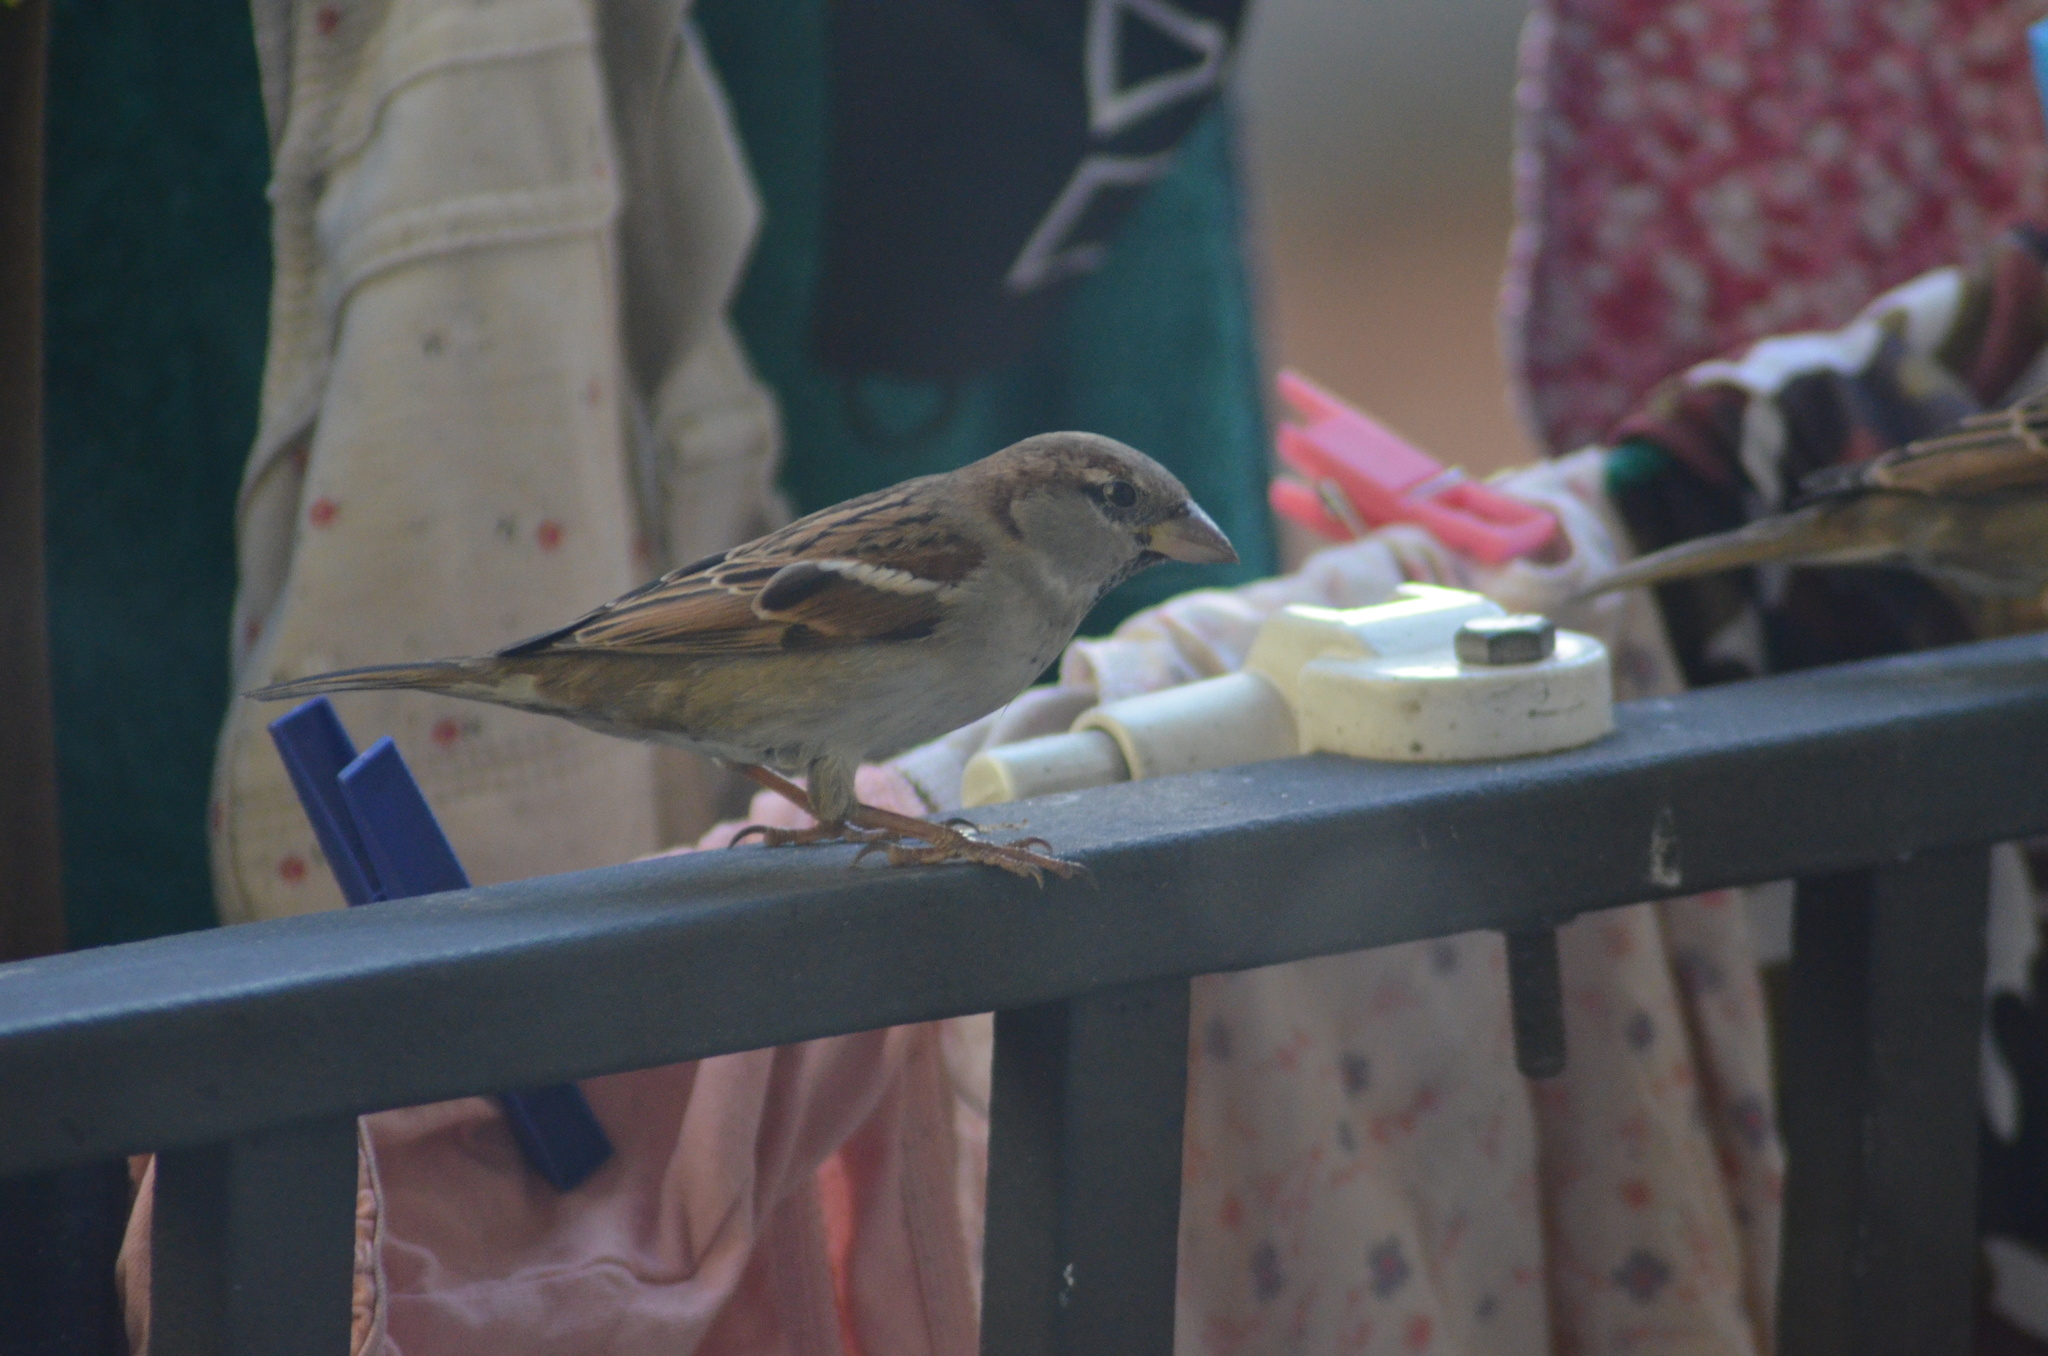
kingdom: Animalia
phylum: Chordata
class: Aves
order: Passeriformes
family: Passeridae
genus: Passer
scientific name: Passer domesticus
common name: House sparrow
